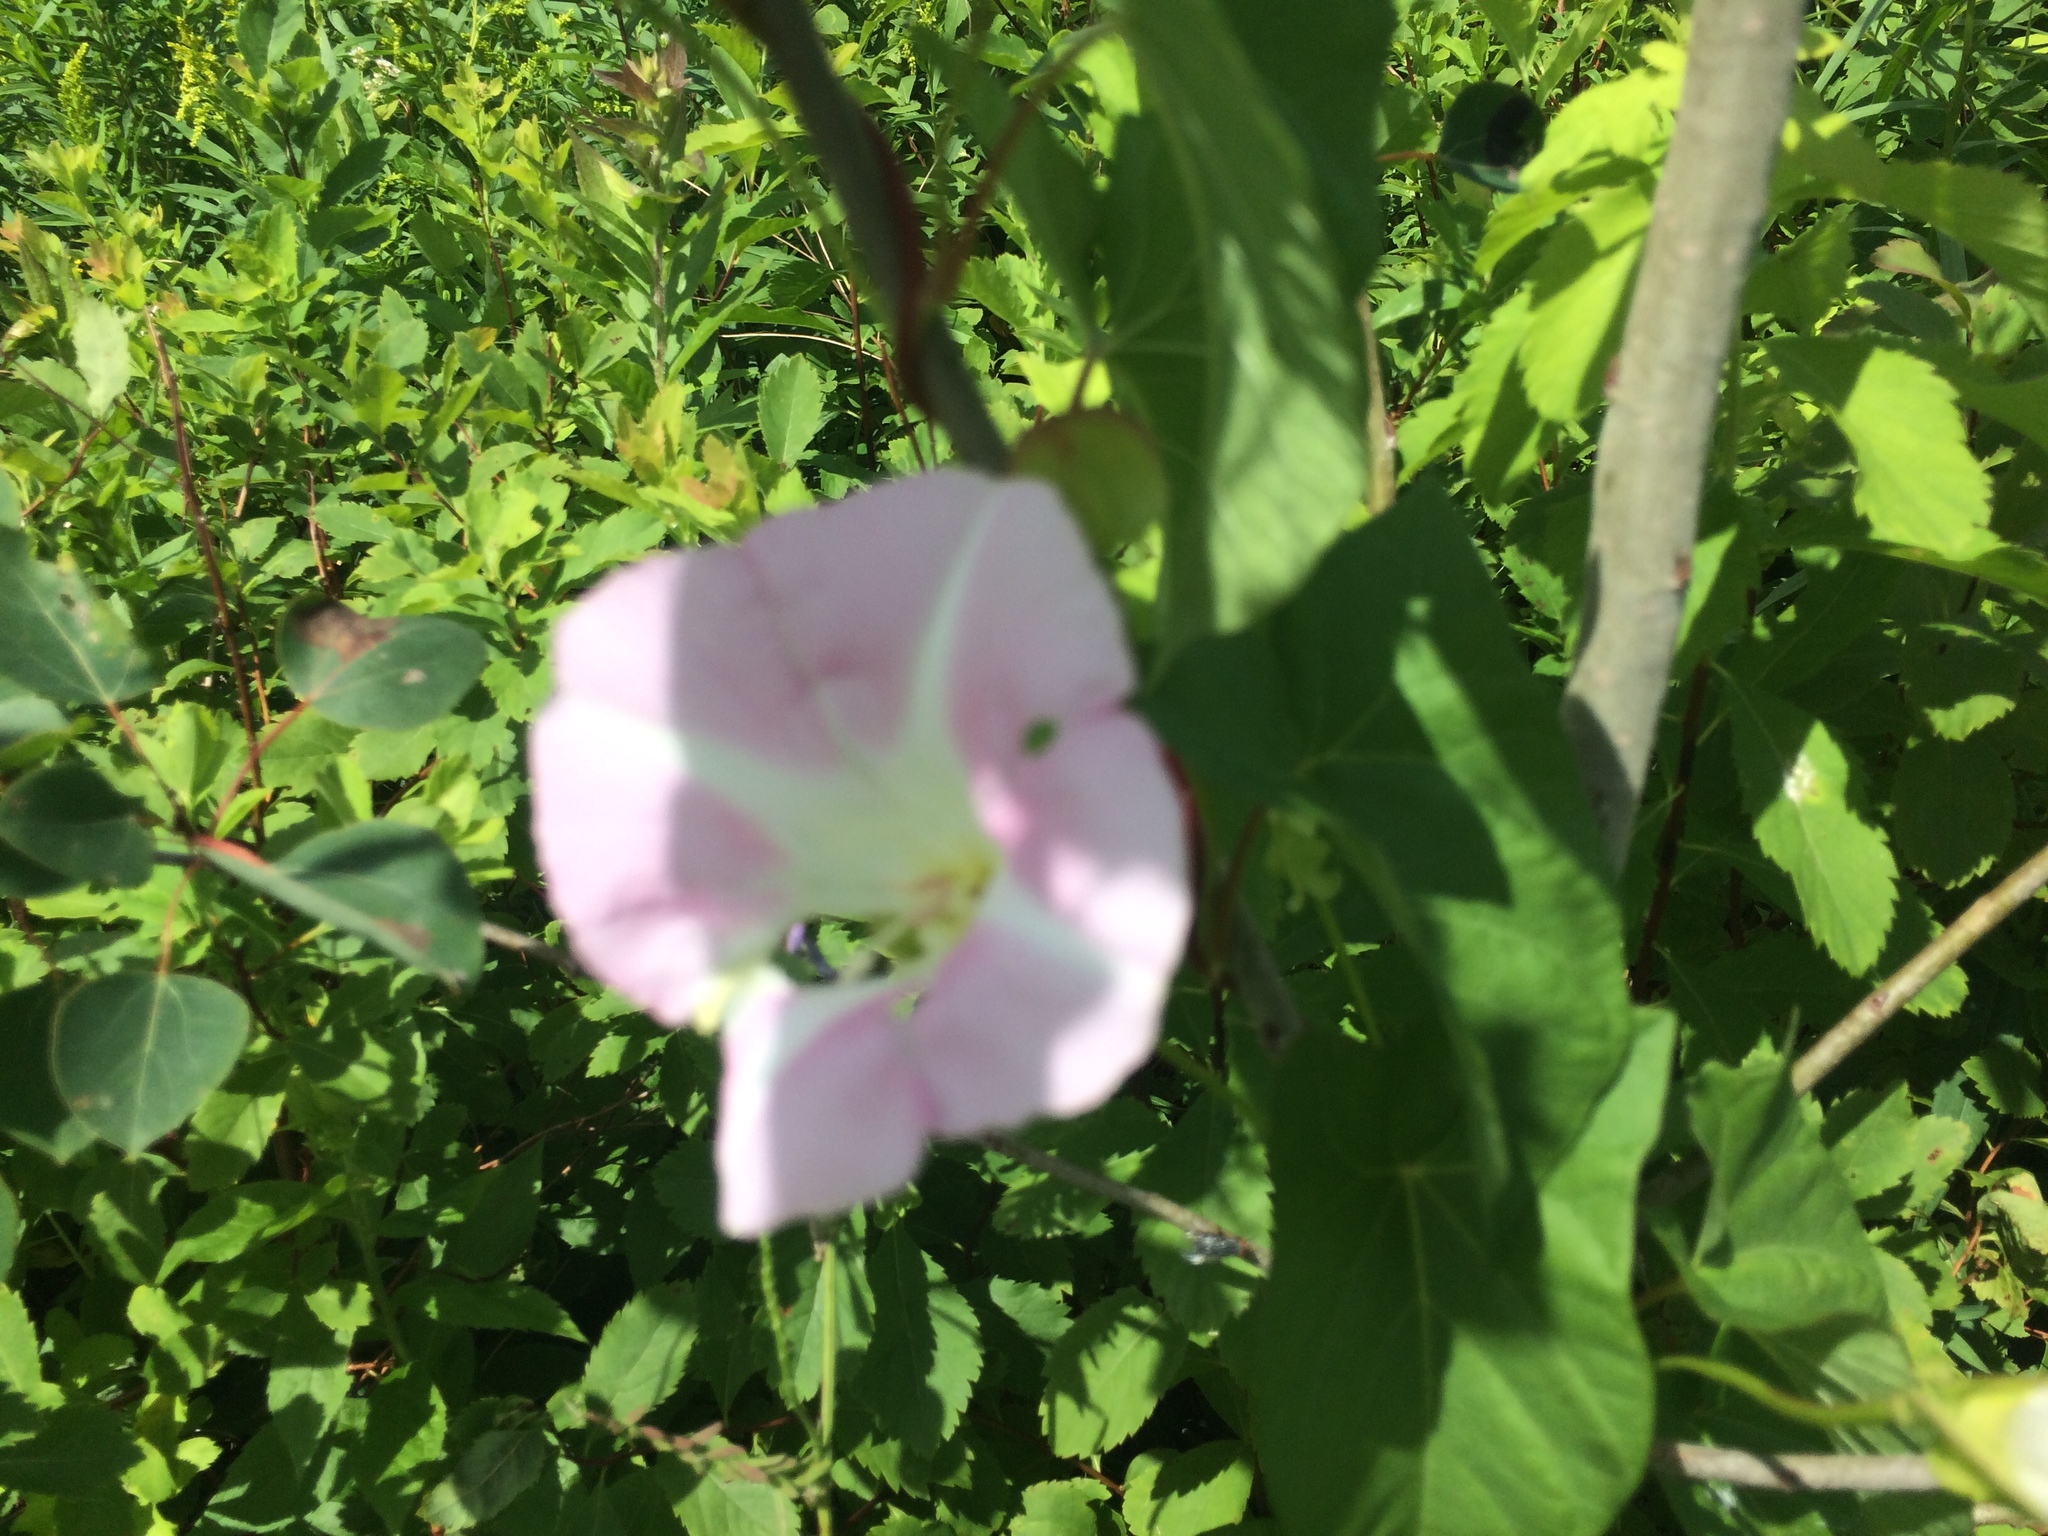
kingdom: Plantae
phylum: Tracheophyta
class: Magnoliopsida
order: Solanales
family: Convolvulaceae
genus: Calystegia
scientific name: Calystegia sepium
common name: Hedge bindweed
